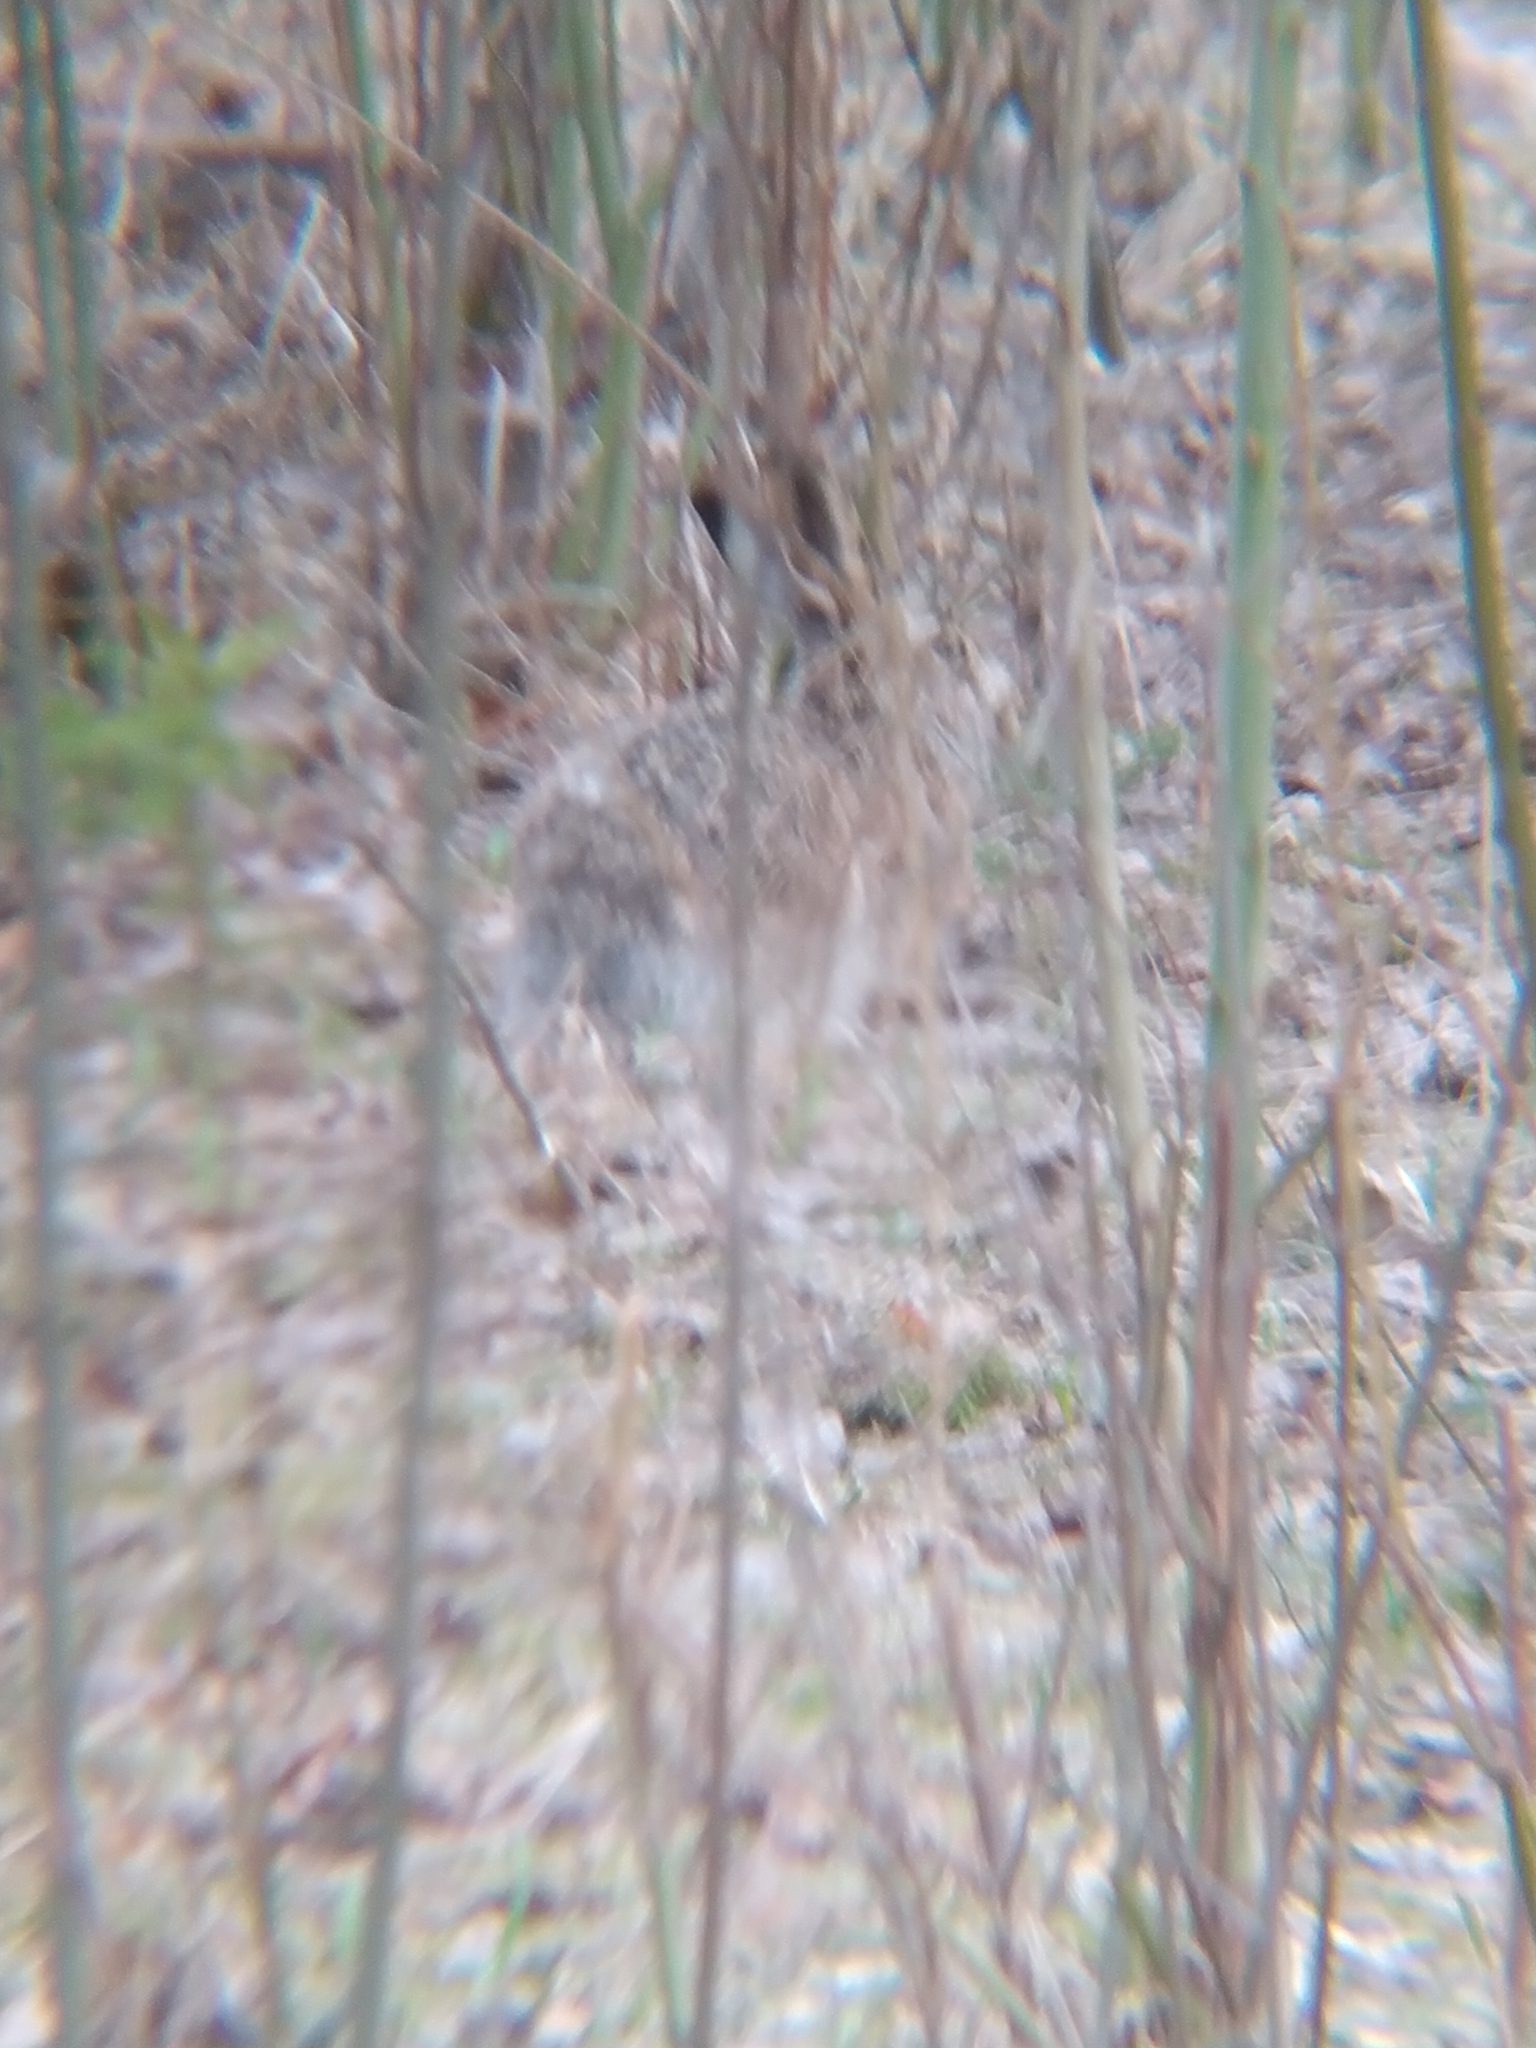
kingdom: Animalia
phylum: Chordata
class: Mammalia
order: Lagomorpha
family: Leporidae
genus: Lepus
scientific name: Lepus europaeus
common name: European hare
